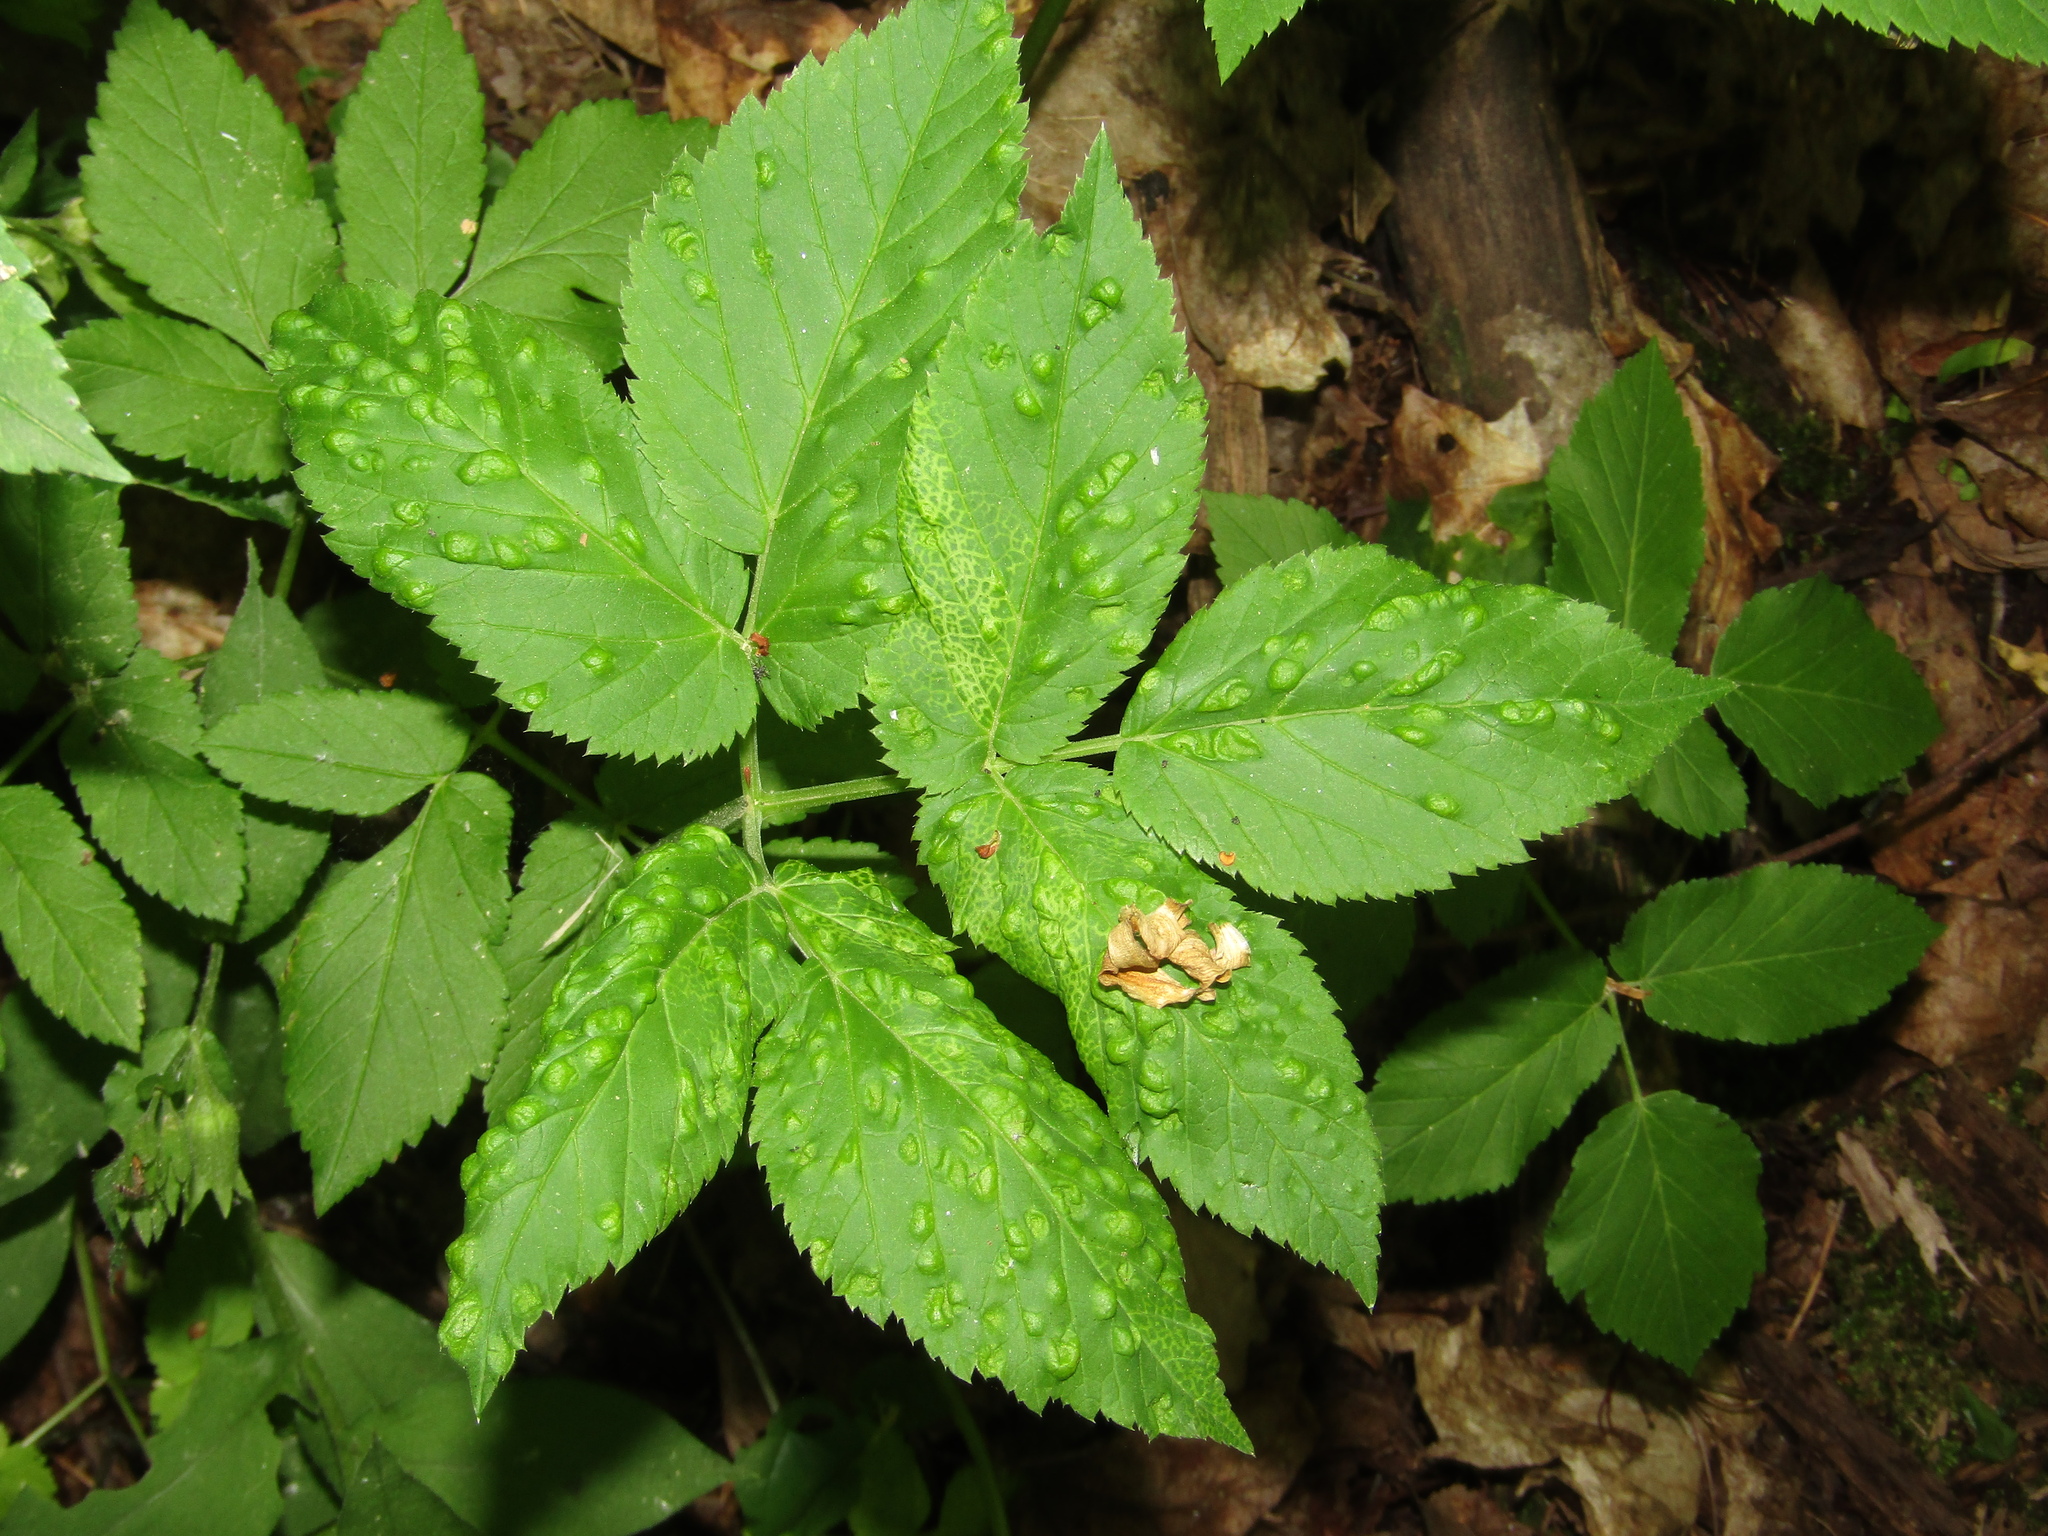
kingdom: Plantae
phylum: Tracheophyta
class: Magnoliopsida
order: Apiales
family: Apiaceae
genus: Aegopodium
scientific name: Aegopodium podagraria
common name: Ground-elder
